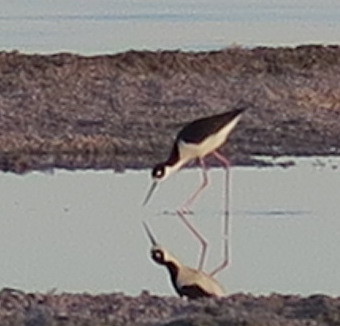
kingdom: Animalia
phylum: Chordata
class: Aves
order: Charadriiformes
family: Recurvirostridae
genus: Himantopus
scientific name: Himantopus mexicanus
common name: Black-necked stilt
